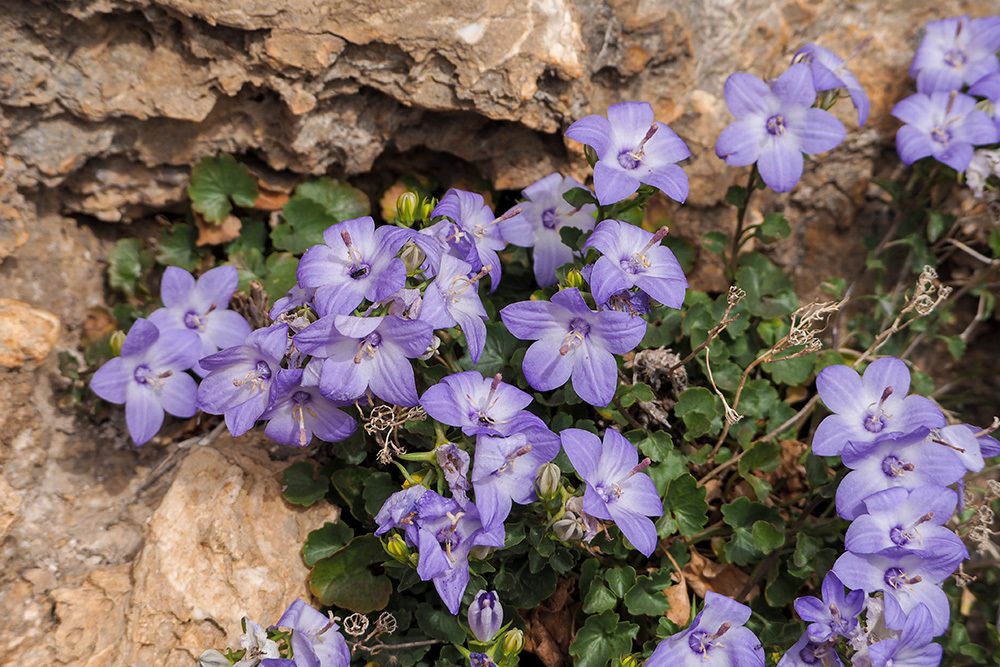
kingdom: Plantae
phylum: Tracheophyta
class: Magnoliopsida
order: Asterales
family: Campanulaceae
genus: Campanula
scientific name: Campanula fragilis
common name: Italian bellflower
